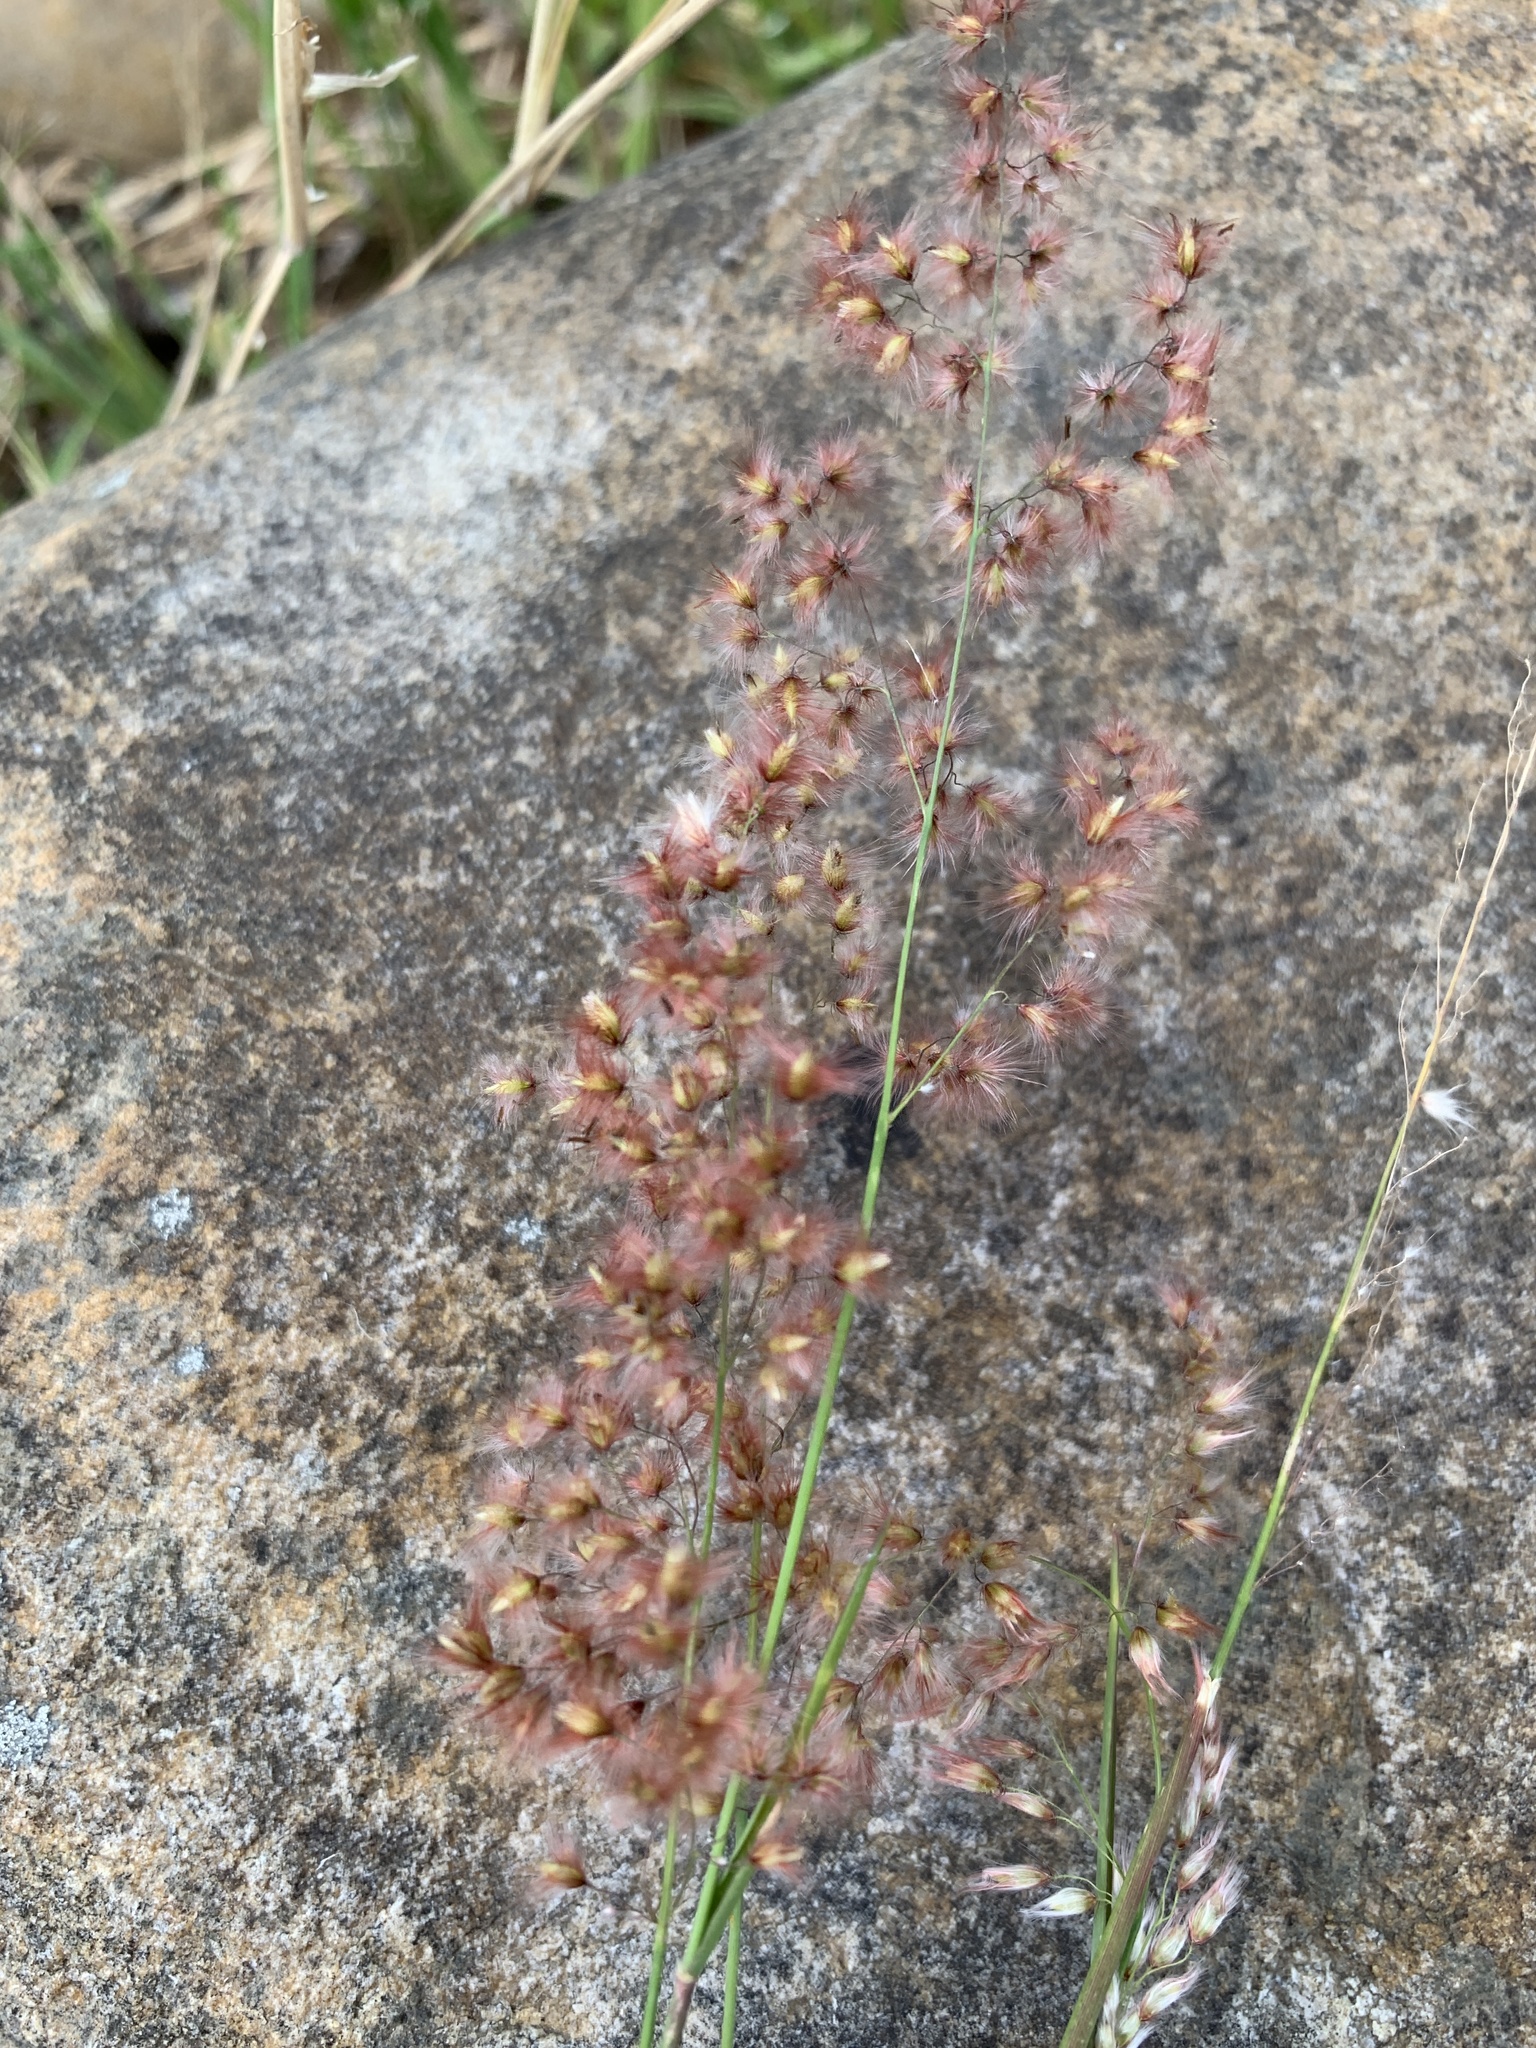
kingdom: Plantae
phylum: Tracheophyta
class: Liliopsida
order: Poales
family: Poaceae
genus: Melinis
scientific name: Melinis repens
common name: Rose natal grass
